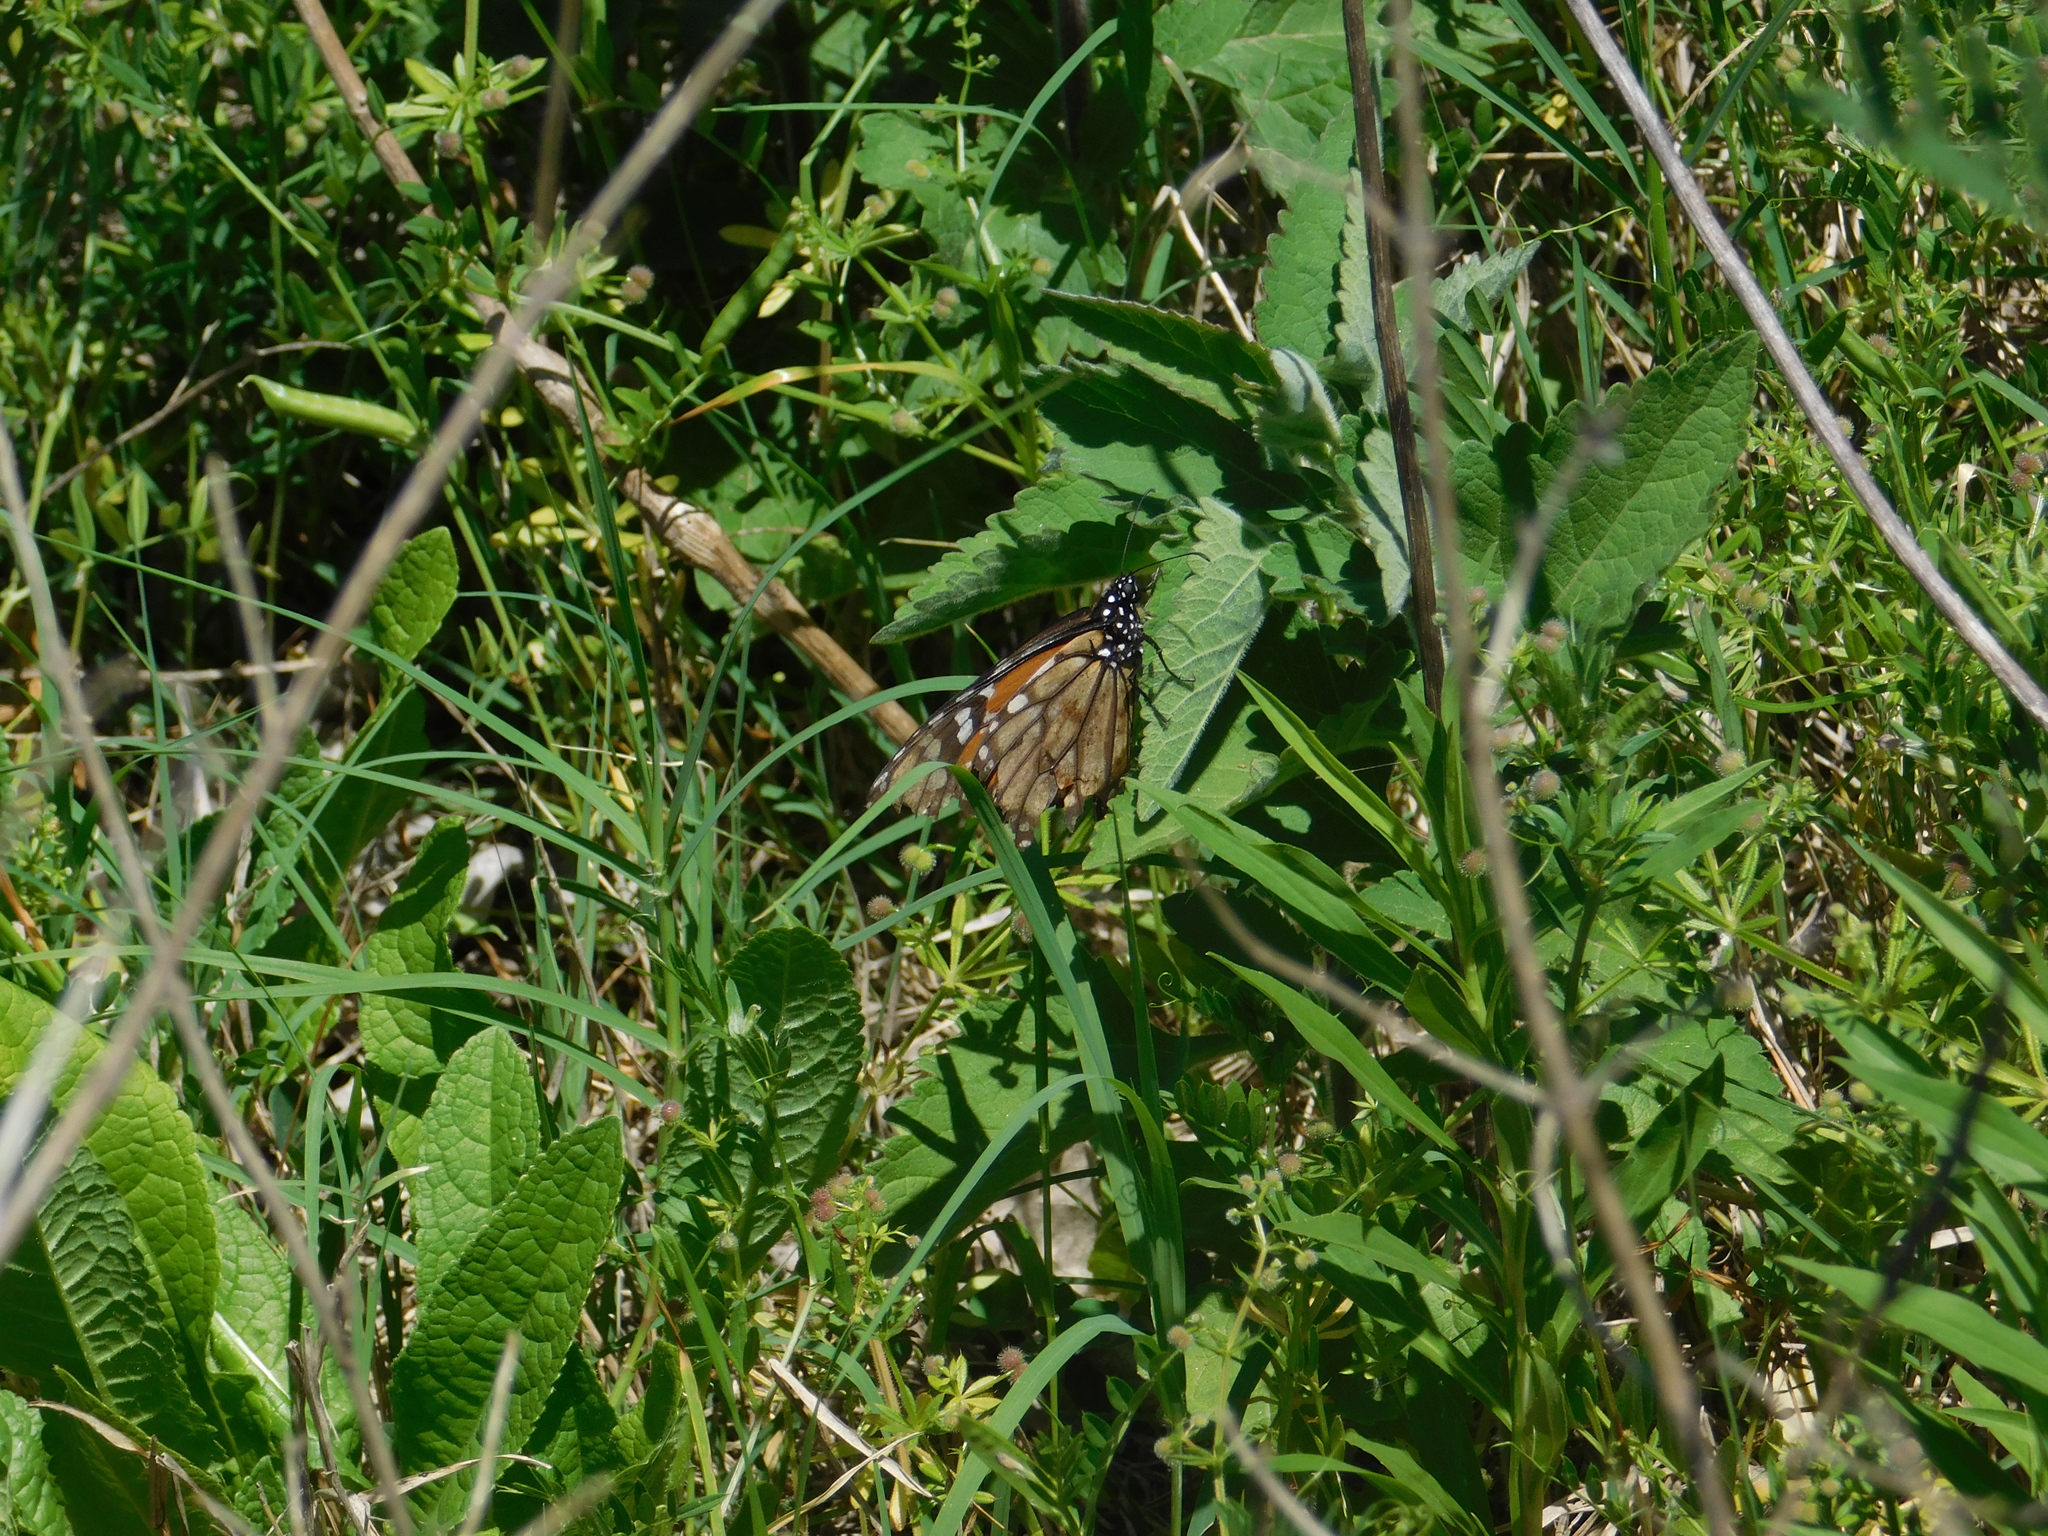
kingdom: Animalia
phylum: Arthropoda
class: Insecta
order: Lepidoptera
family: Nymphalidae
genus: Danaus
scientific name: Danaus erippus
